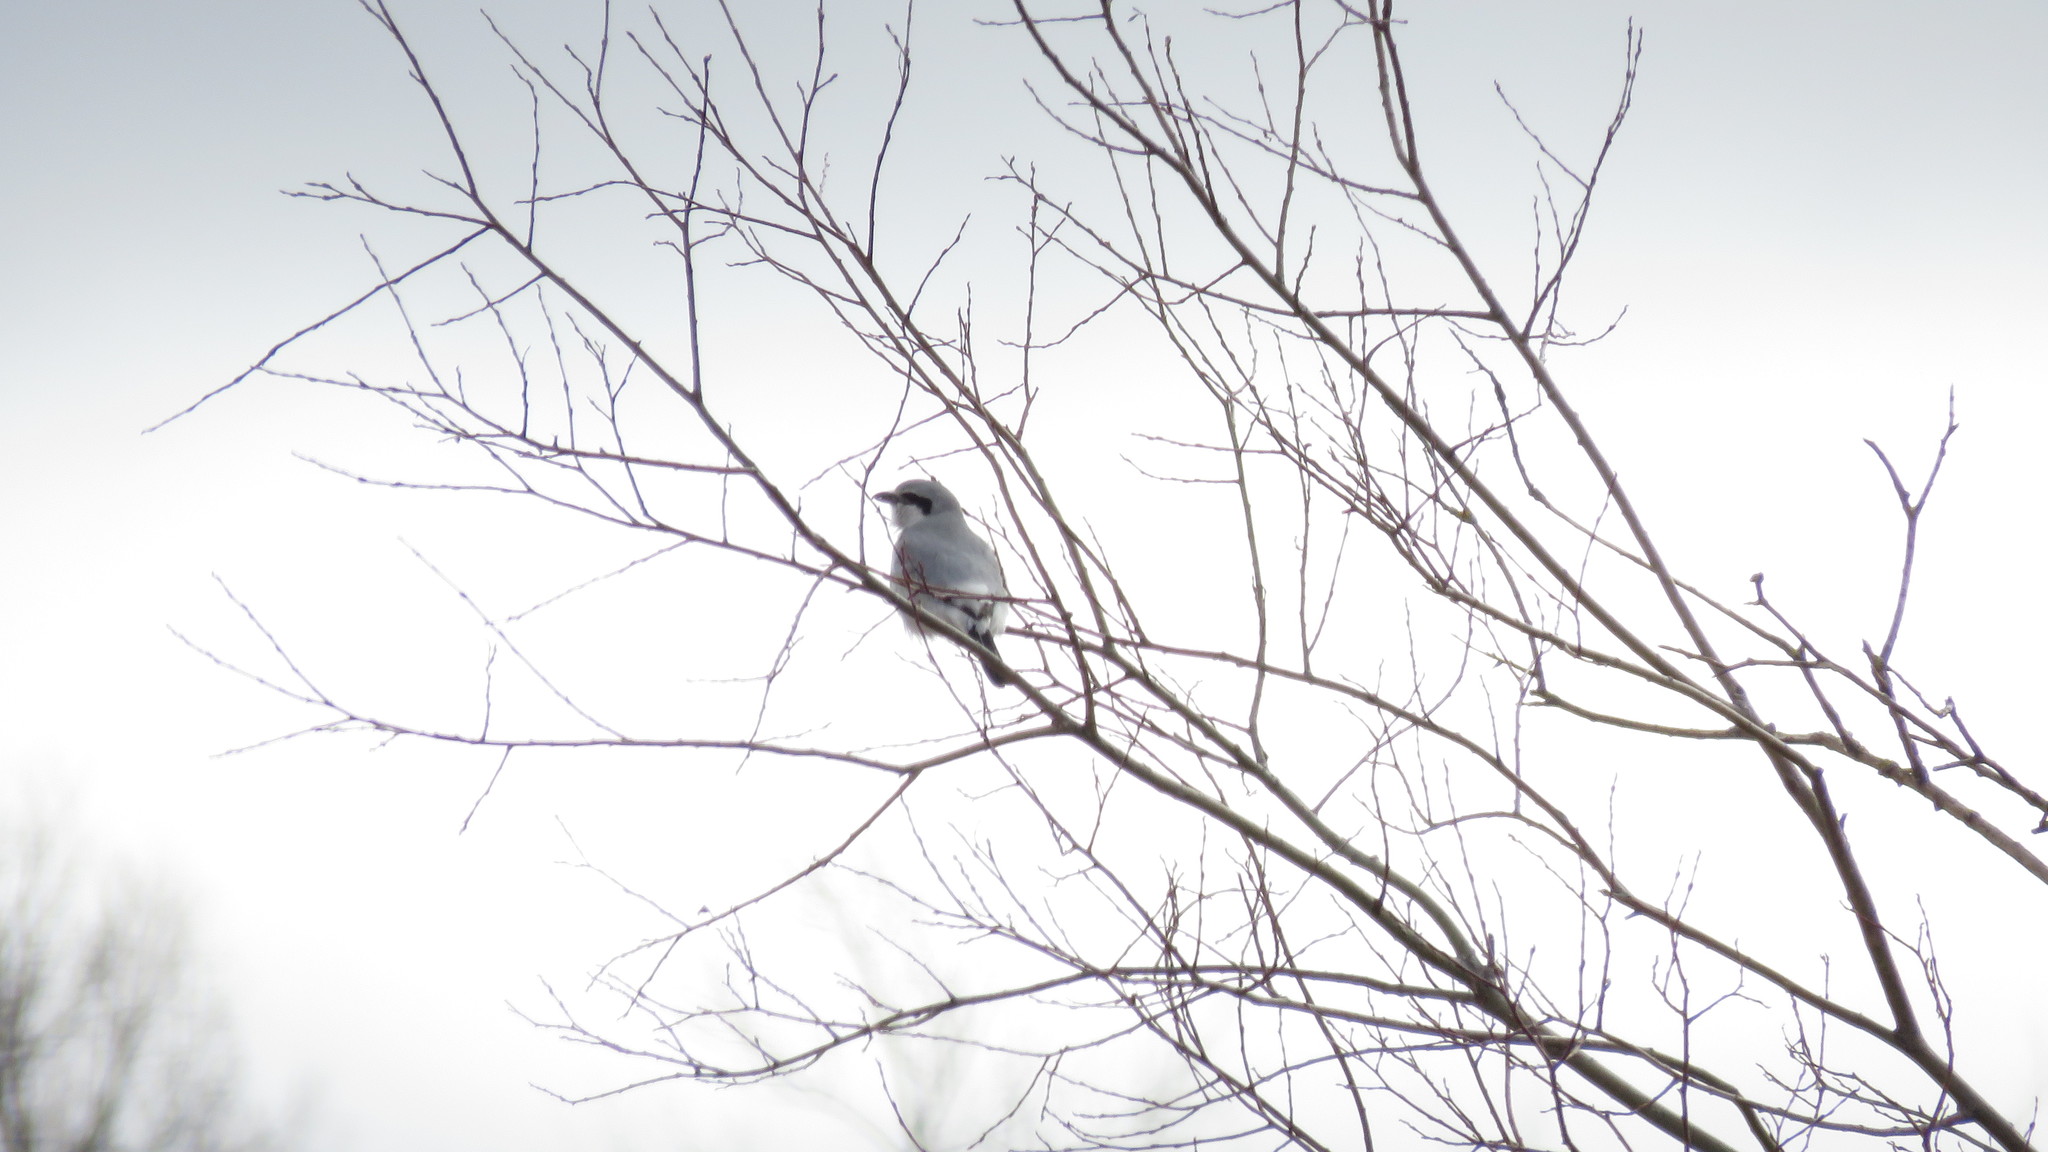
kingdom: Animalia
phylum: Chordata
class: Aves
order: Passeriformes
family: Laniidae
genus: Lanius
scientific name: Lanius borealis
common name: Northern shrike
